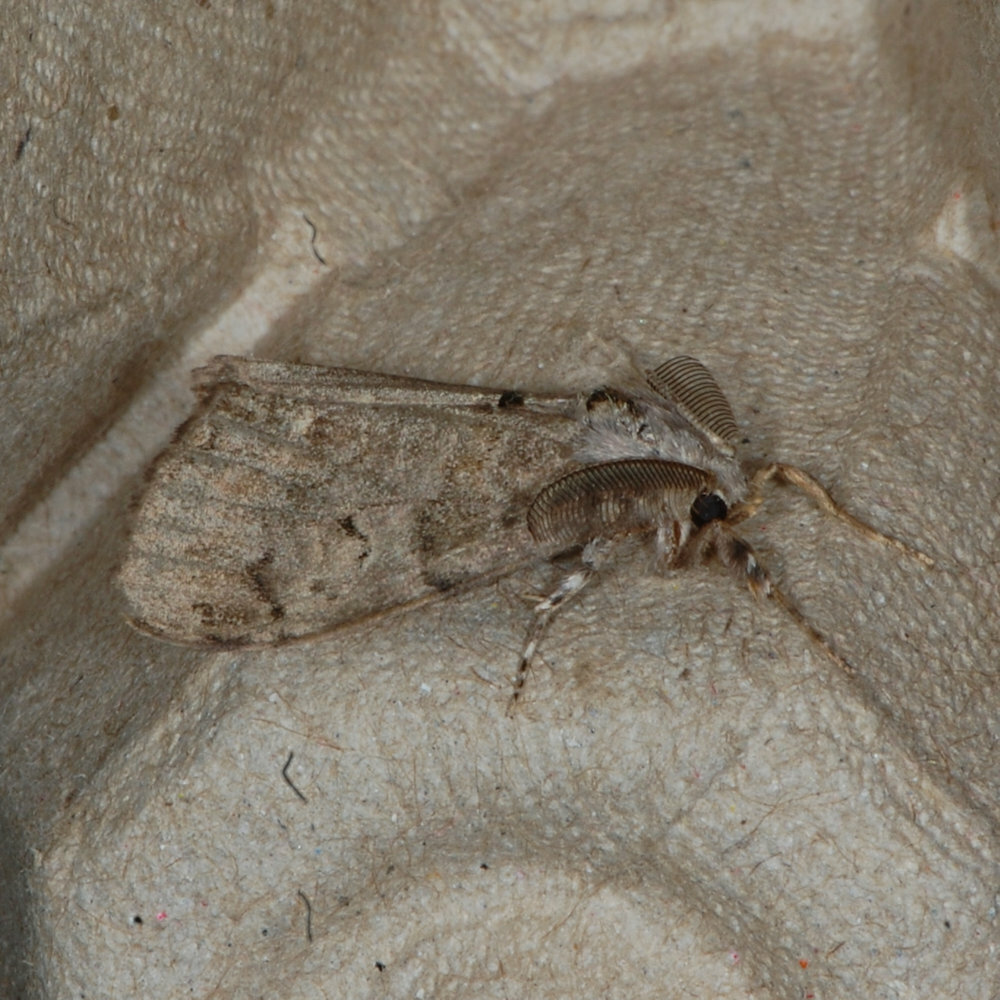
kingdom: Animalia
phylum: Arthropoda
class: Insecta
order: Lepidoptera
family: Erebidae
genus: Orgyia
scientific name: Orgyia leucostigma
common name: White-marked tussock moth
